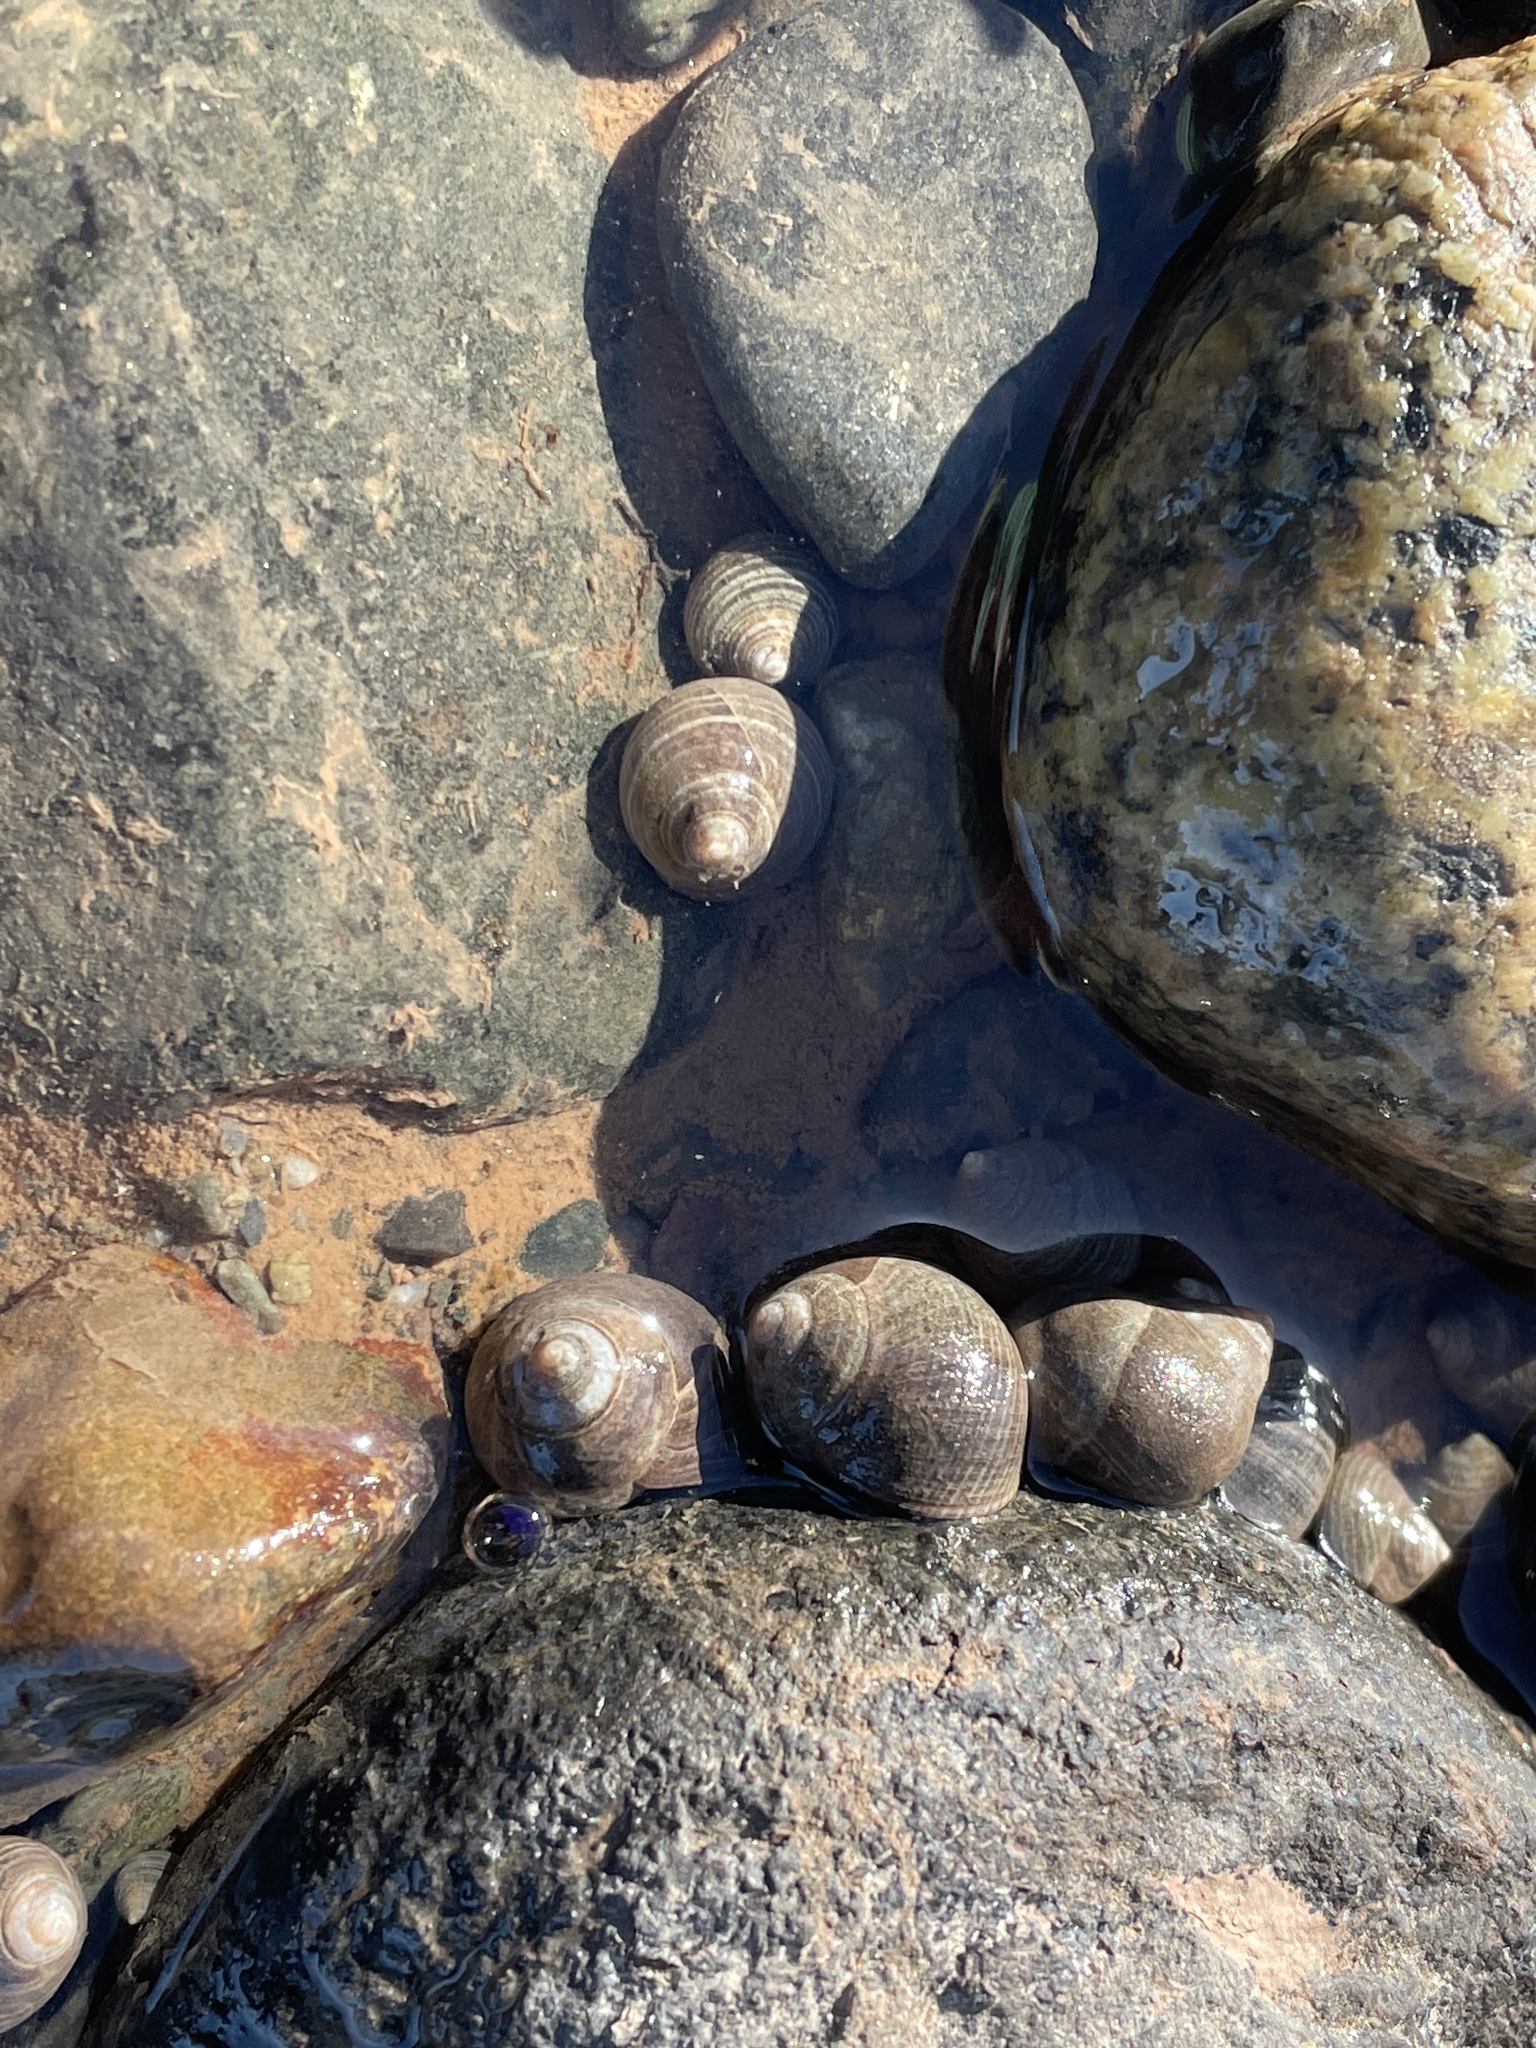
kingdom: Animalia
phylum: Mollusca
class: Gastropoda
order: Littorinimorpha
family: Littorinidae
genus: Littorina
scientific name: Littorina littorea
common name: Common periwinkle
